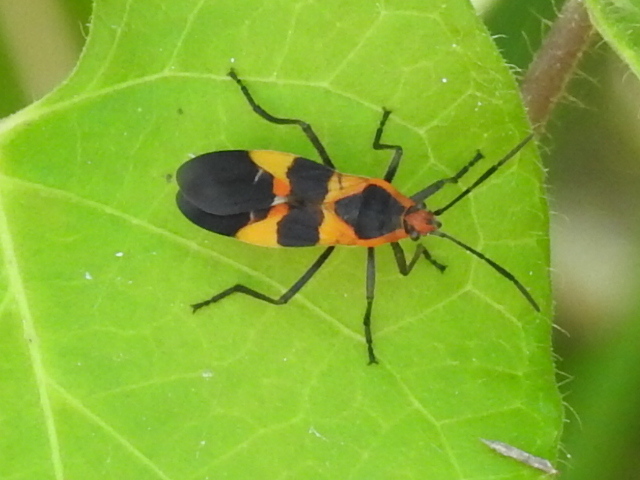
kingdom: Animalia
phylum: Arthropoda
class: Insecta
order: Hemiptera
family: Lygaeidae
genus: Oncopeltus
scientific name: Oncopeltus fasciatus
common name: Large milkweed bug
